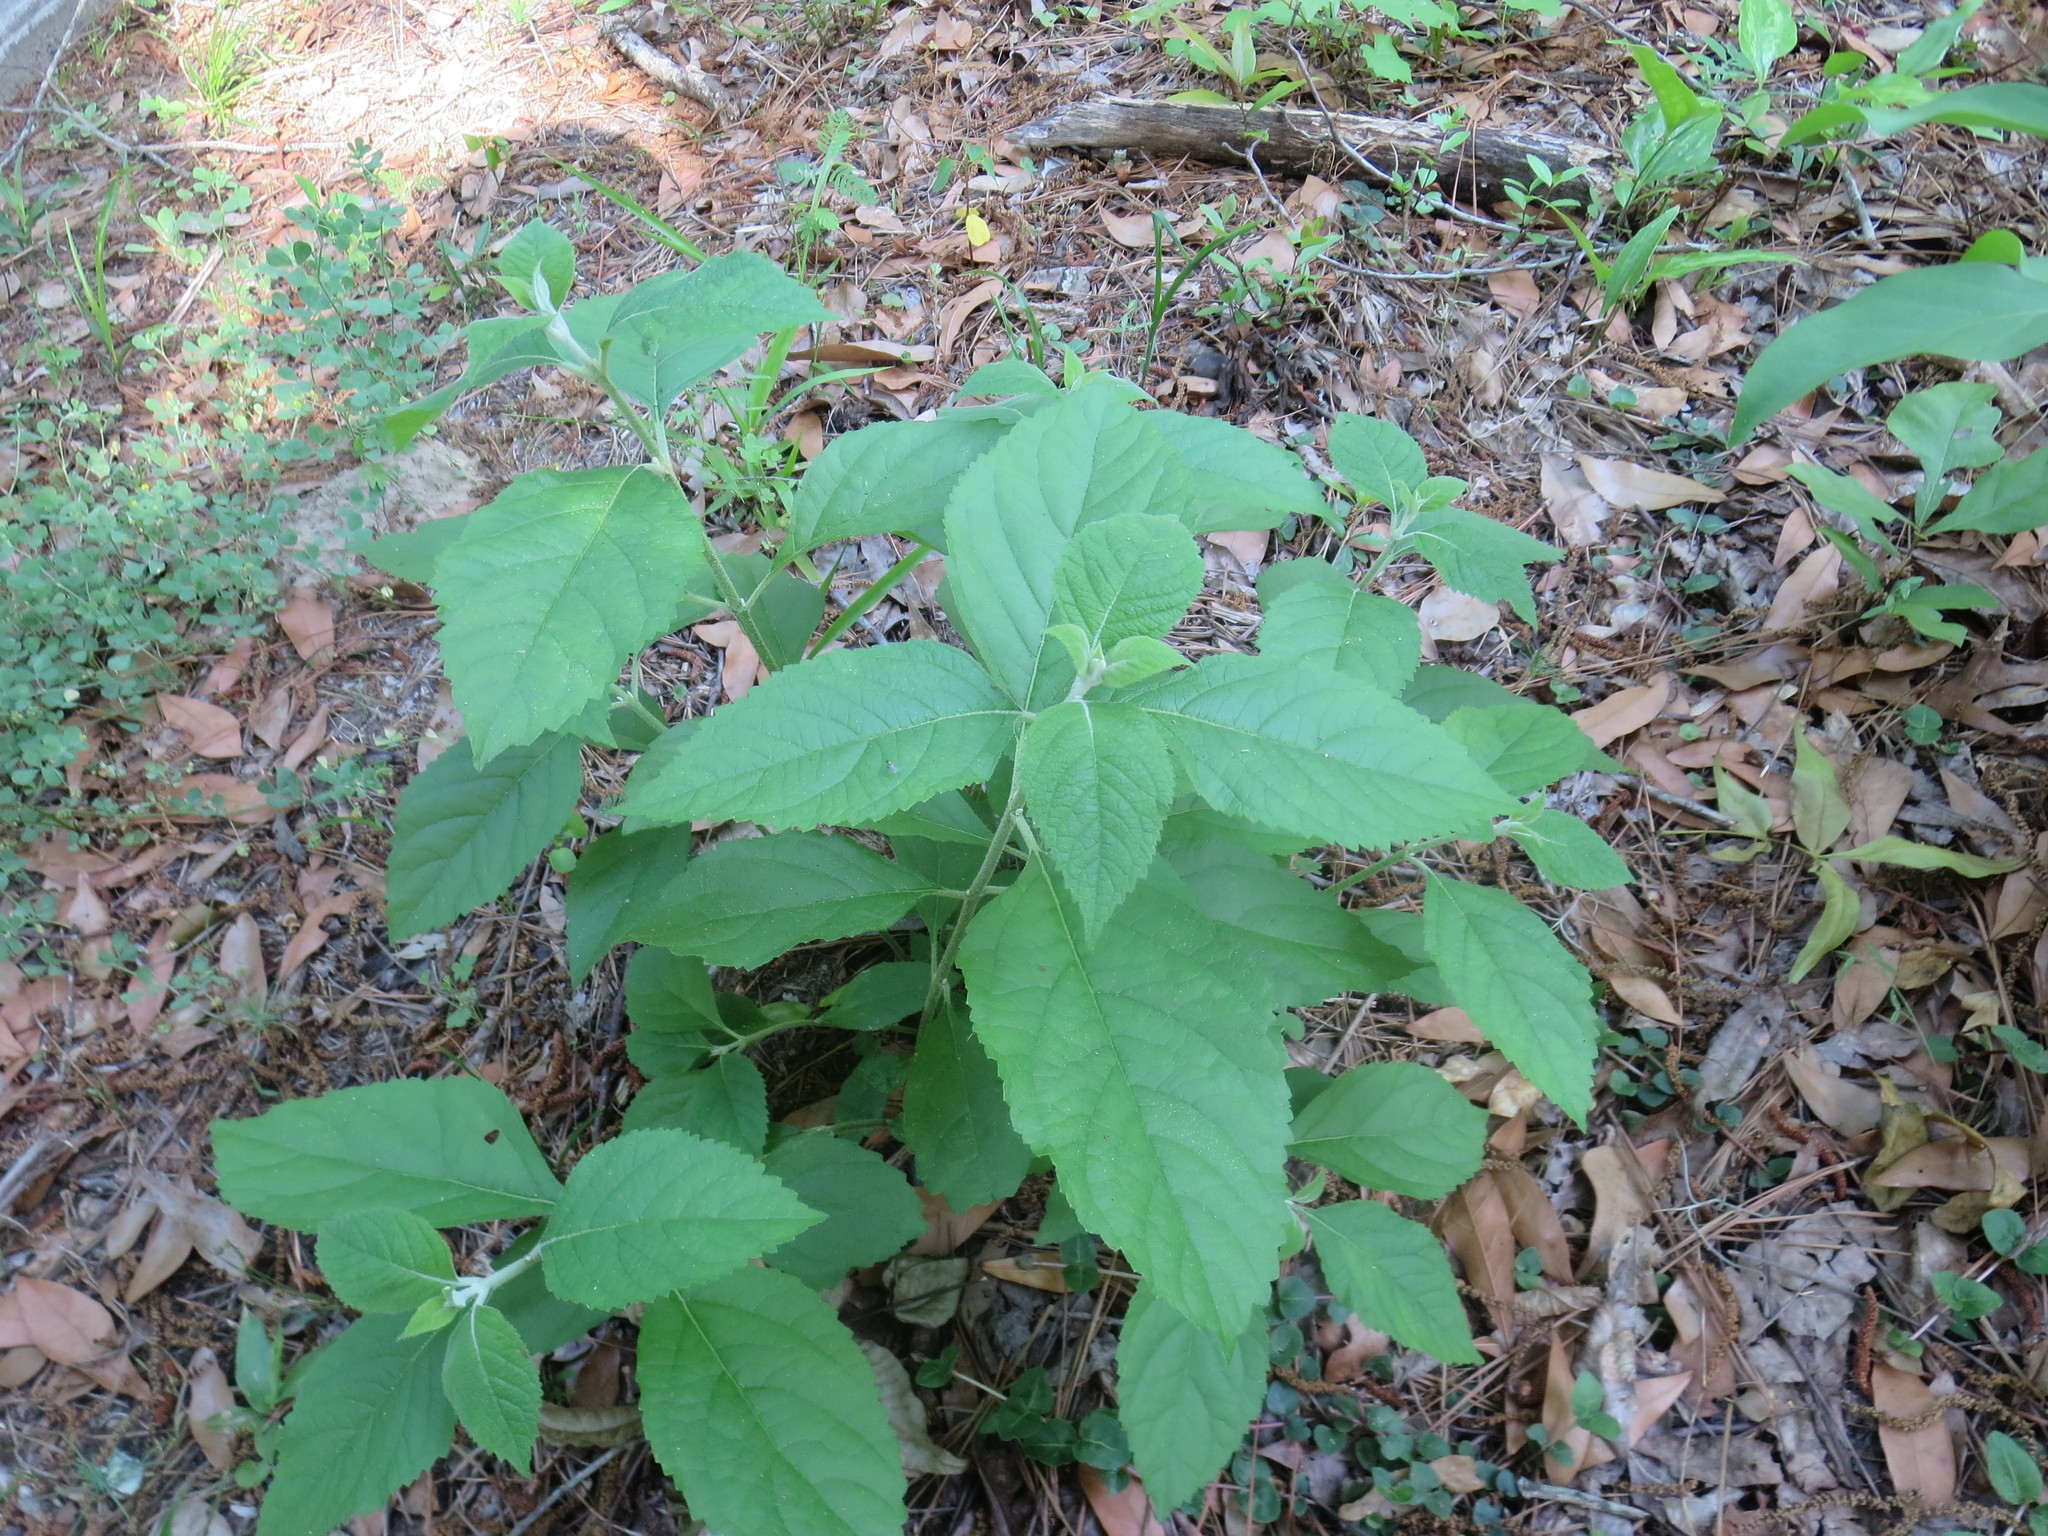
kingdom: Plantae
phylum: Tracheophyta
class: Magnoliopsida
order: Lamiales
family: Lamiaceae
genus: Callicarpa
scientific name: Callicarpa americana
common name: American beautyberry
